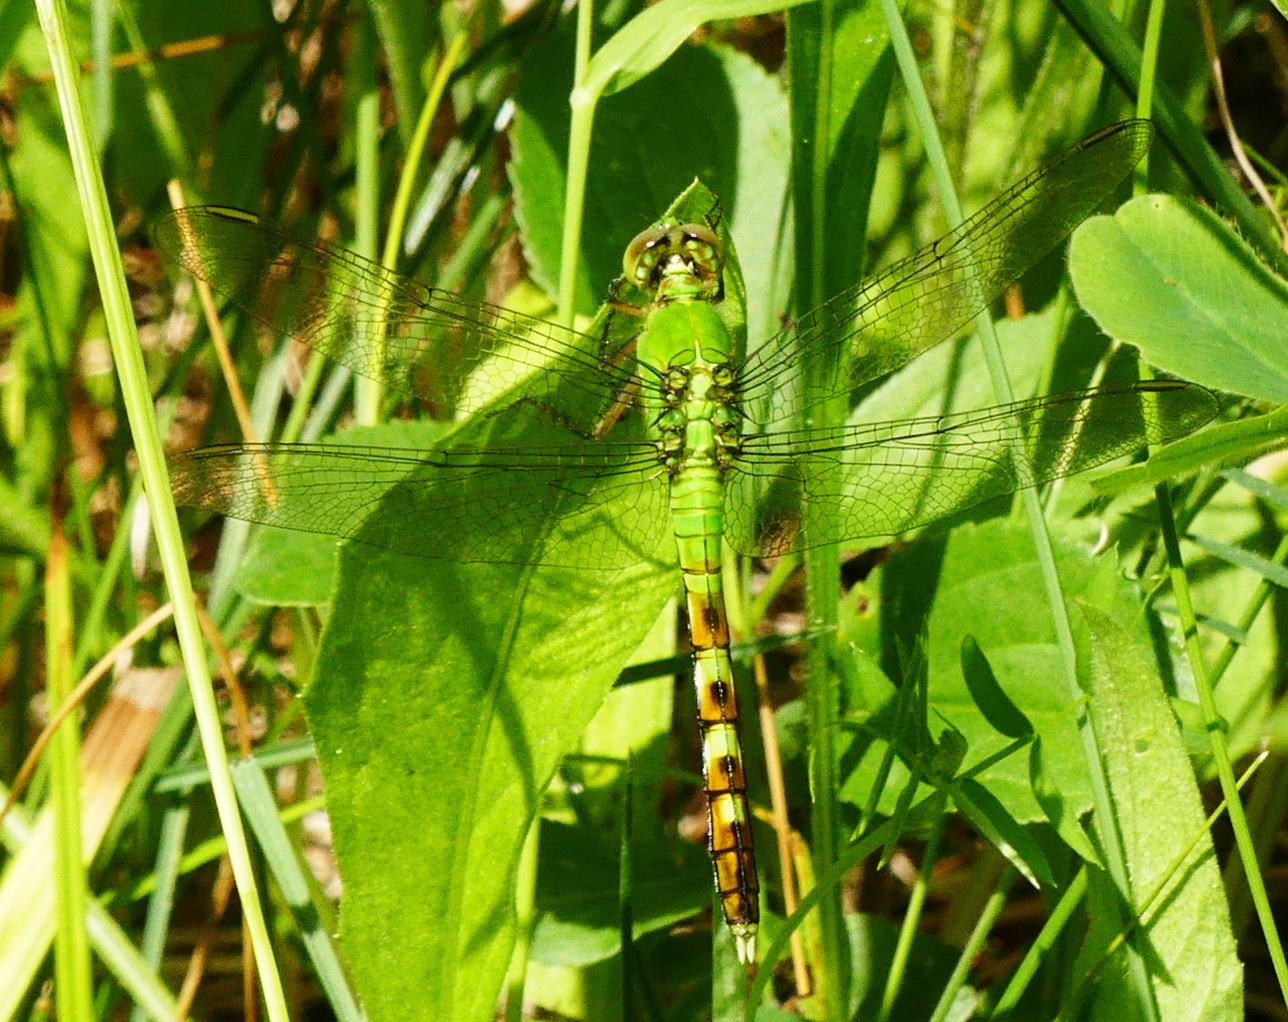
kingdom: Animalia
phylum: Arthropoda
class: Insecta
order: Odonata
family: Libellulidae
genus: Erythemis
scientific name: Erythemis simplicicollis
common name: Eastern pondhawk
